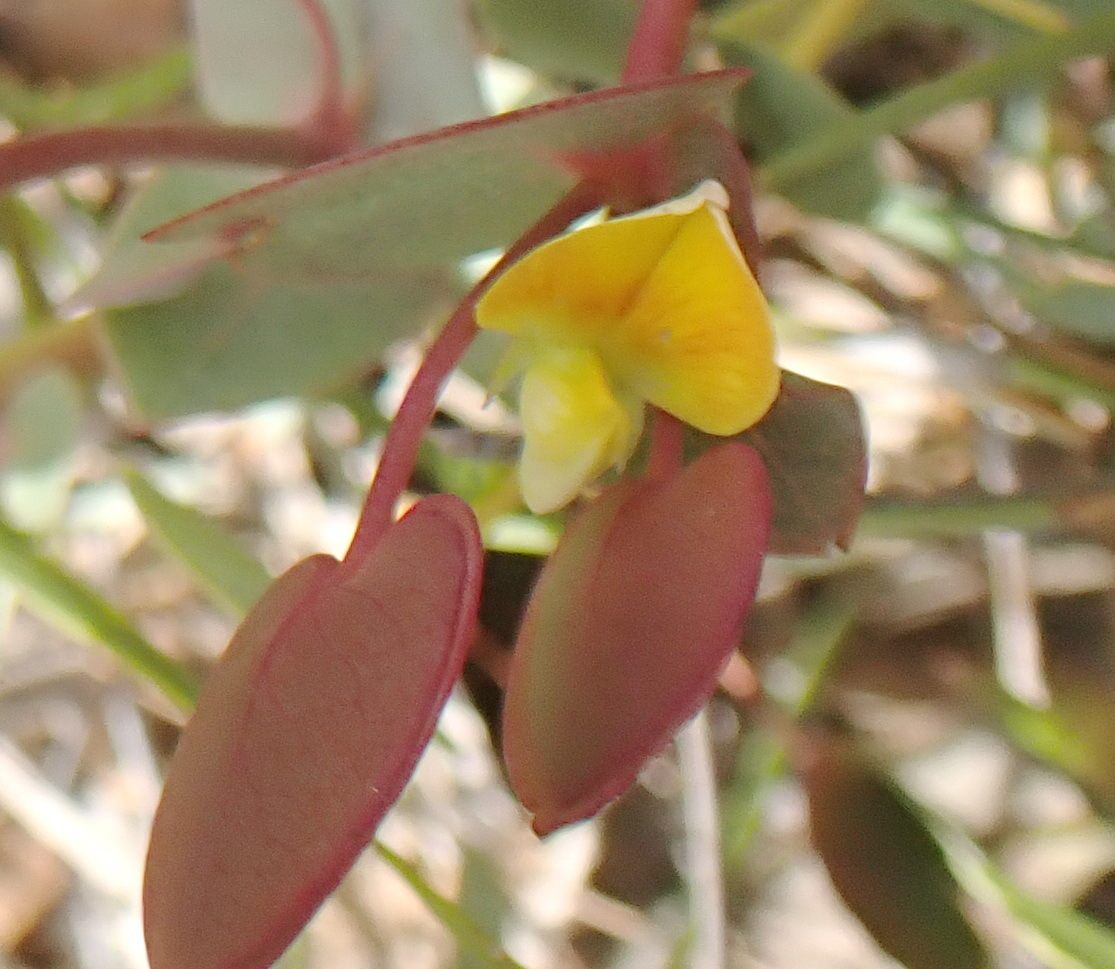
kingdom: Plantae
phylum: Tracheophyta
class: Magnoliopsida
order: Fabales
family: Fabaceae
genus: Rafnia
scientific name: Rafnia acuminata
